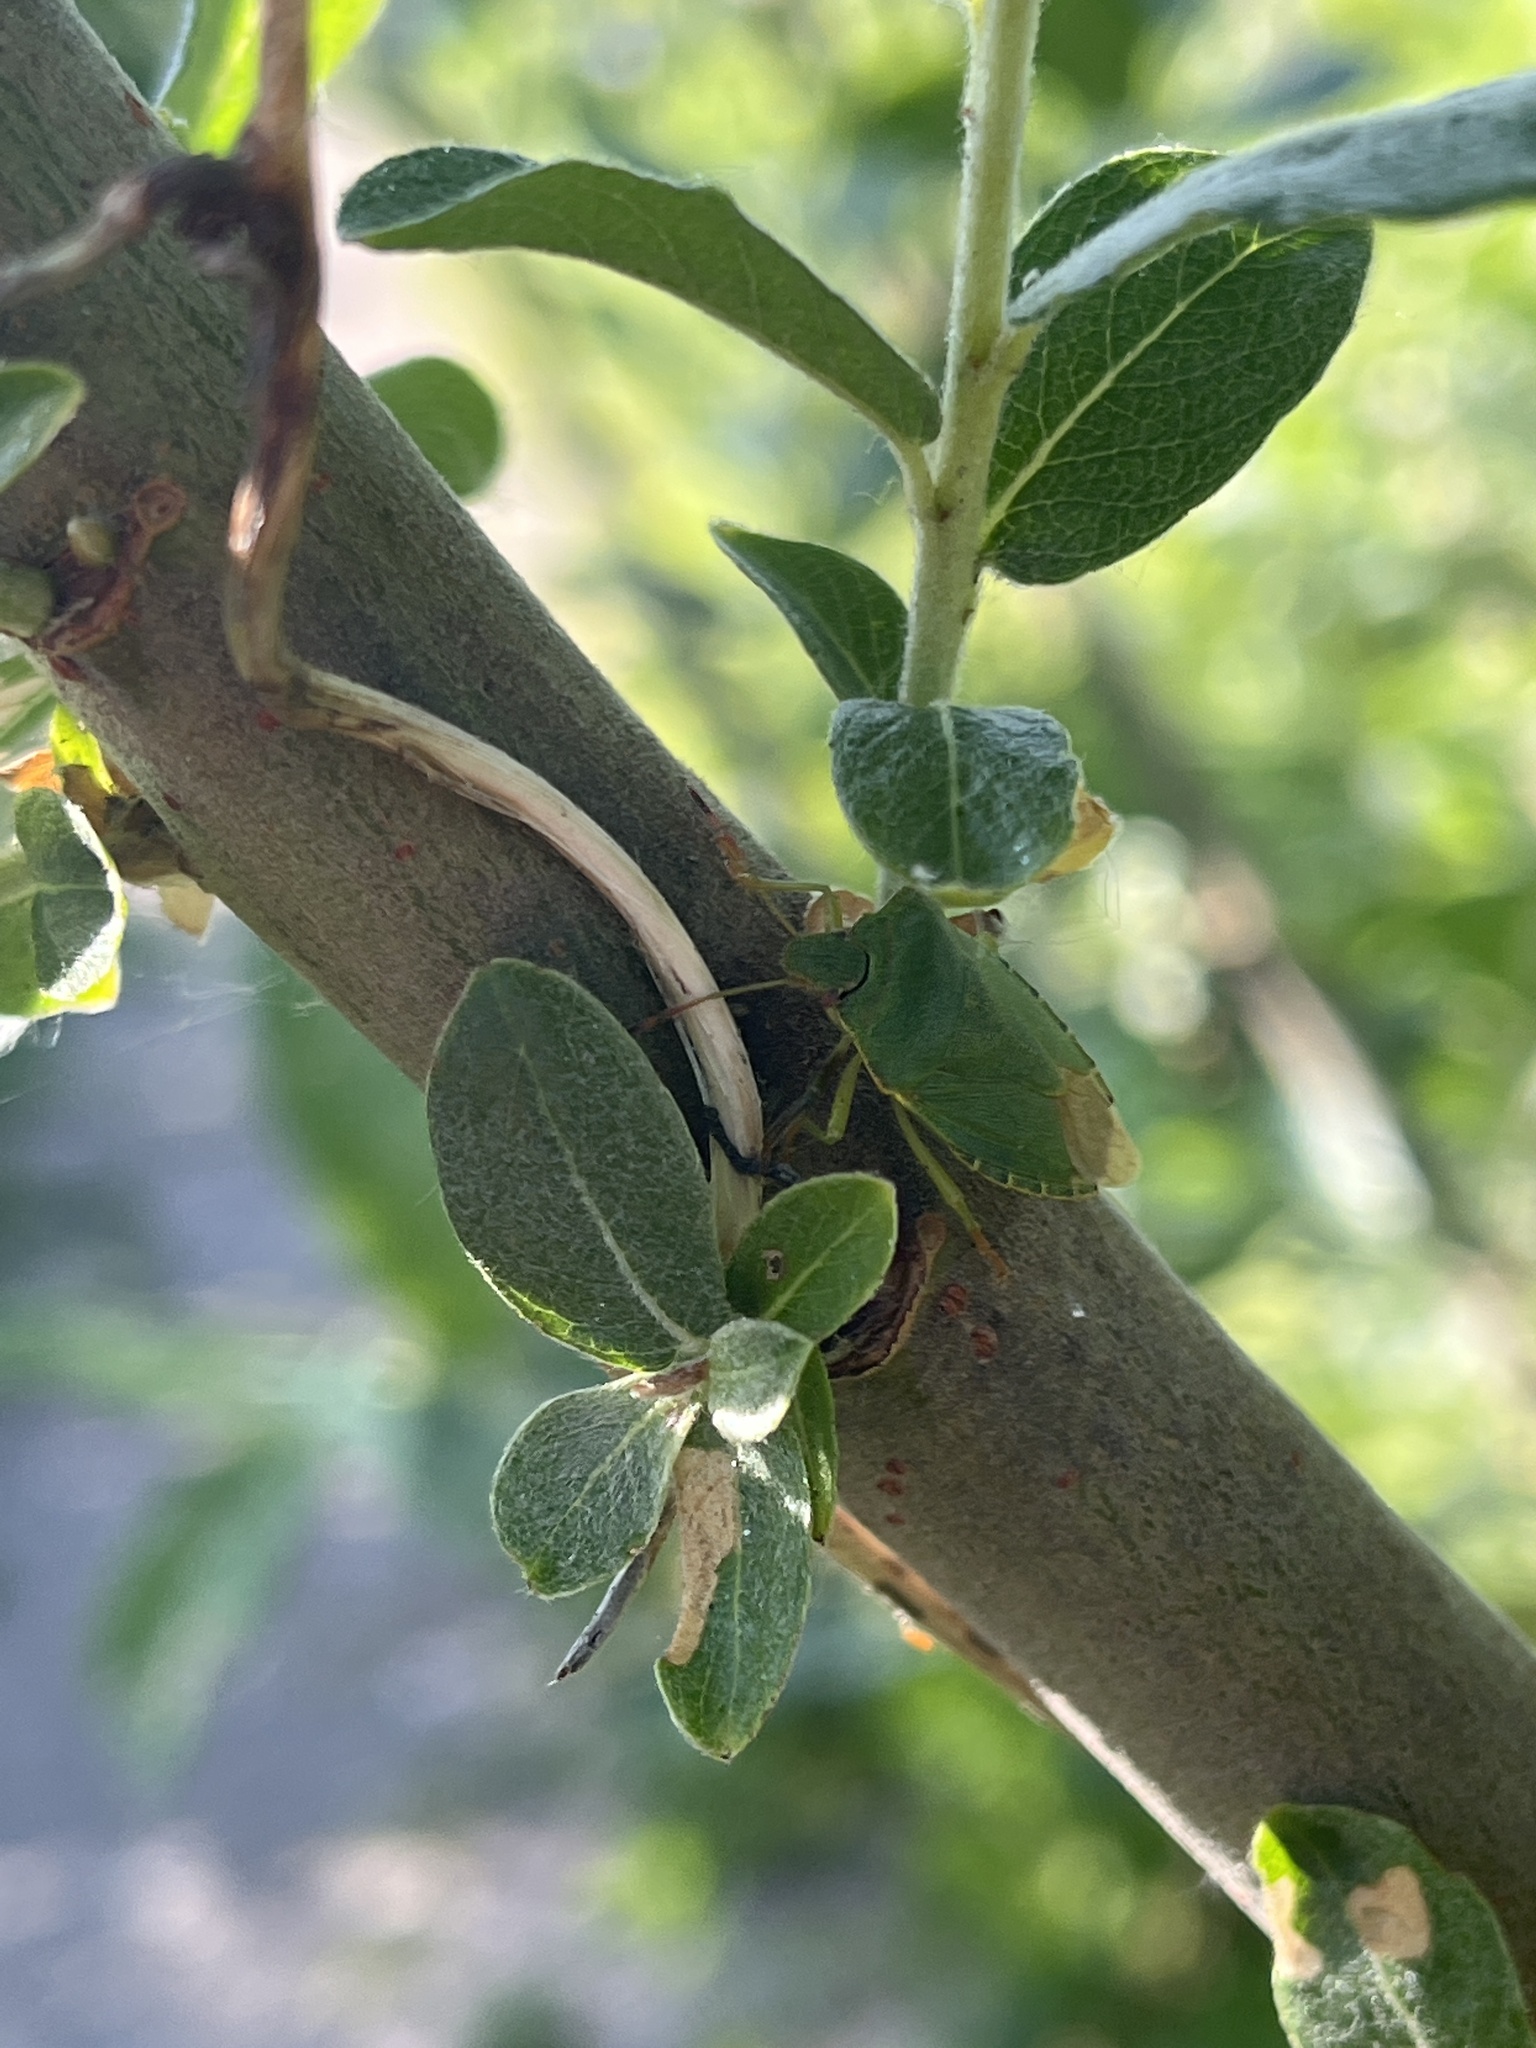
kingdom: Animalia
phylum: Arthropoda
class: Insecta
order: Hemiptera
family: Pentatomidae
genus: Palomena
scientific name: Palomena prasina
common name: Green shieldbug
